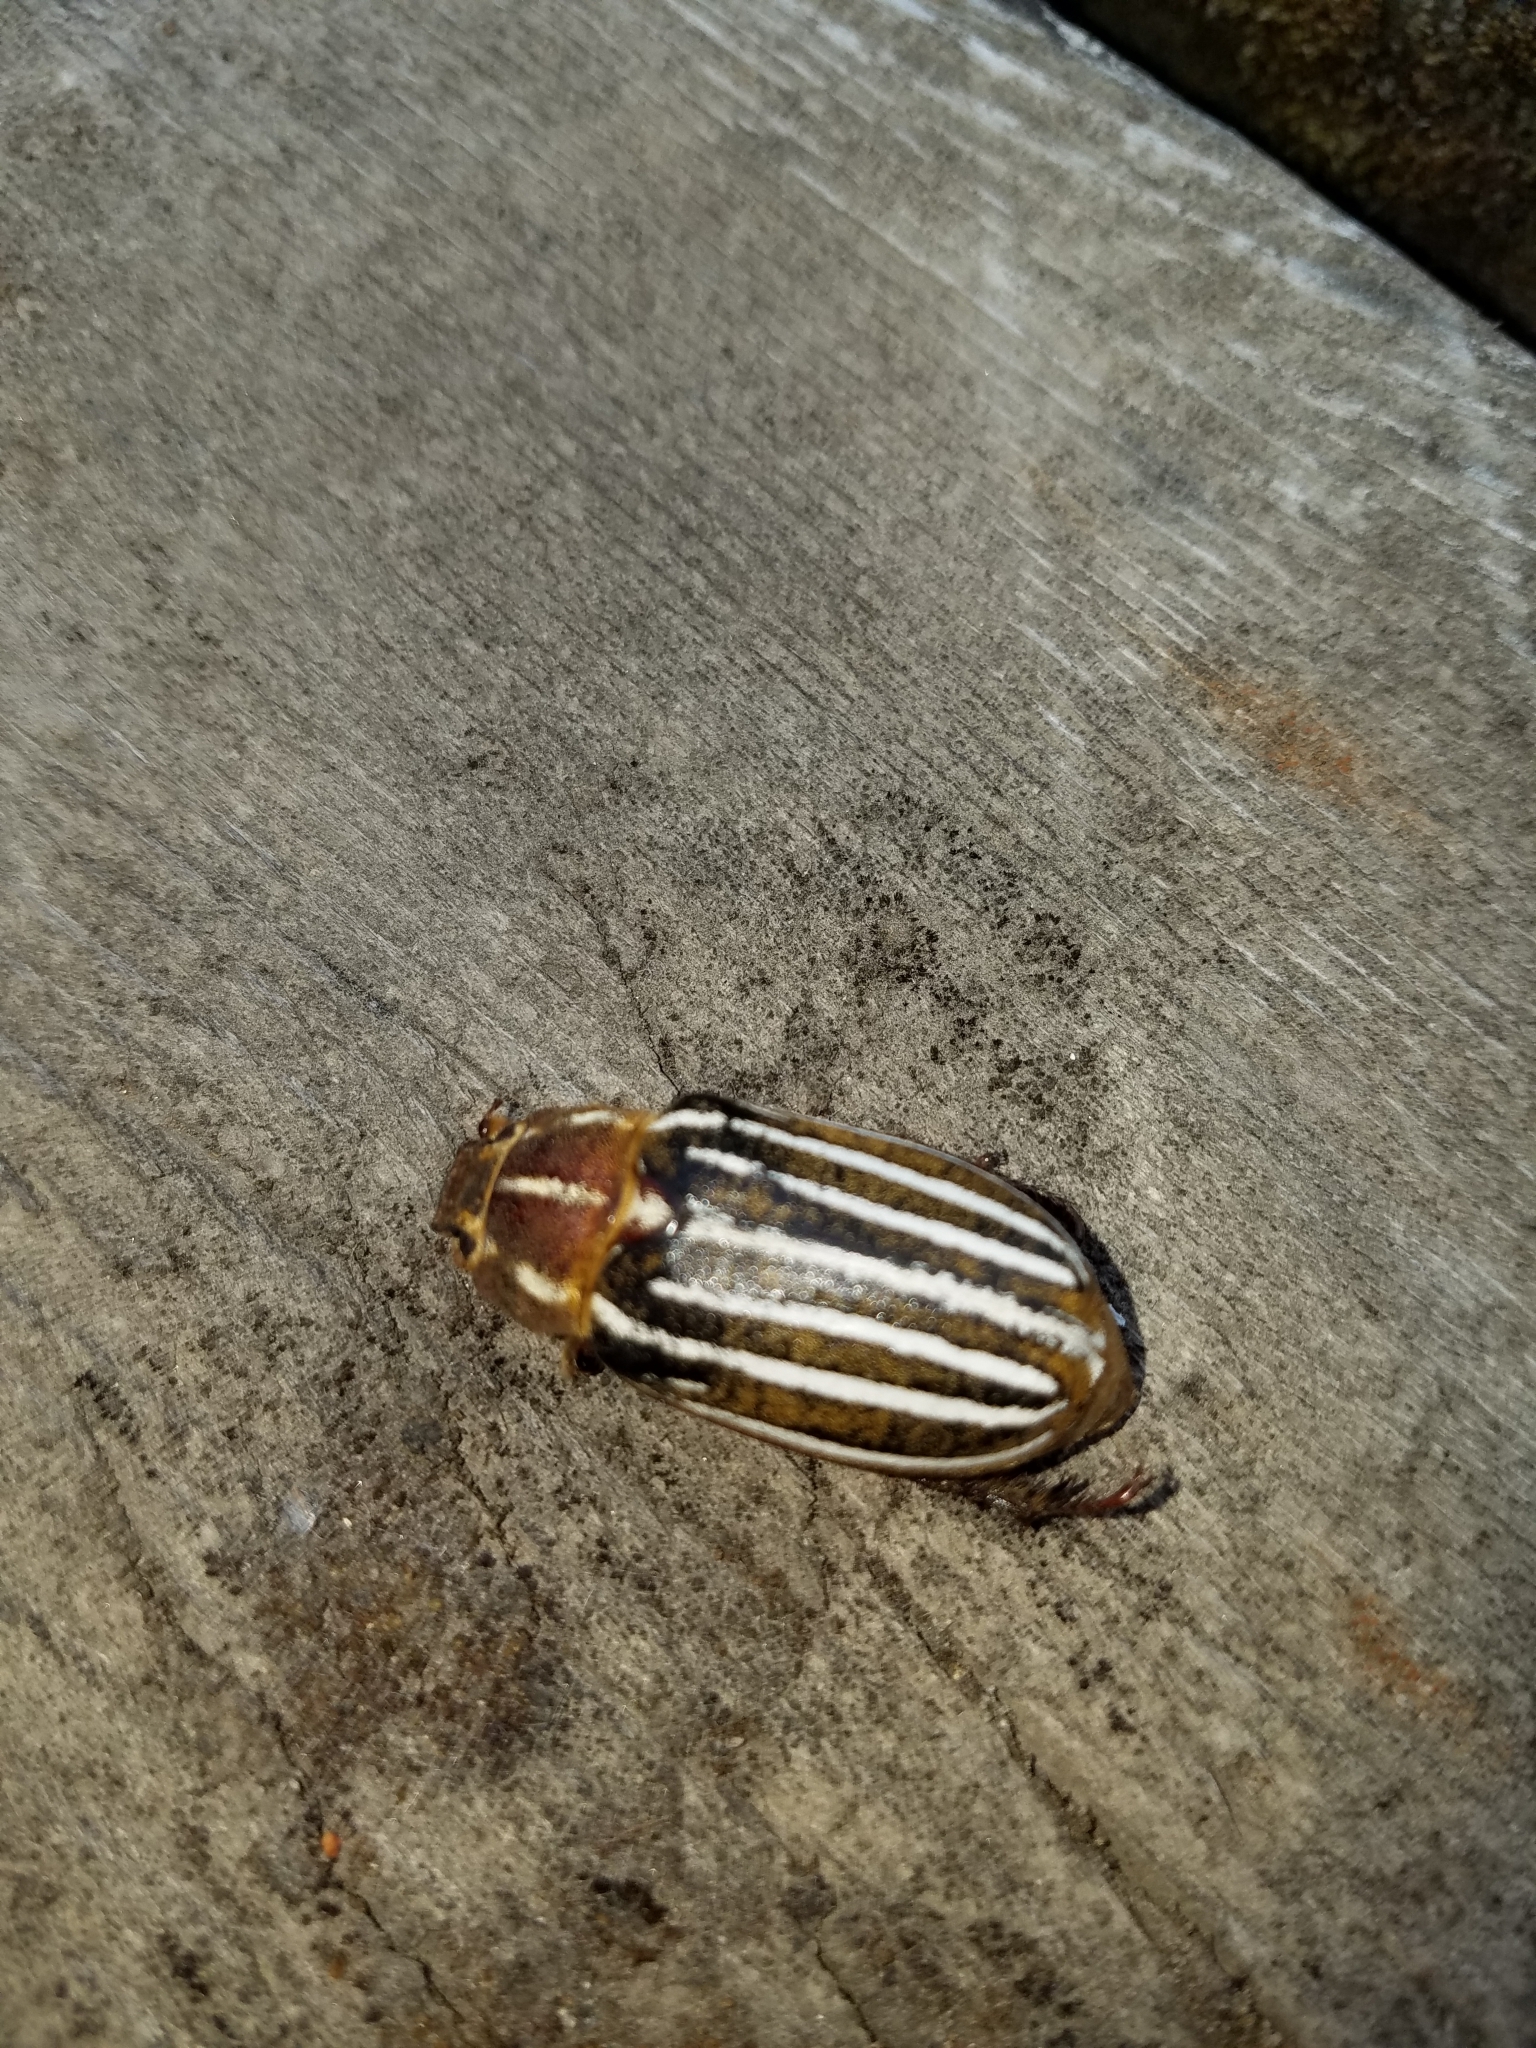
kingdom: Animalia
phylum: Arthropoda
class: Insecta
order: Coleoptera
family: Scarabaeidae
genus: Polyphylla
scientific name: Polyphylla decemlineata
